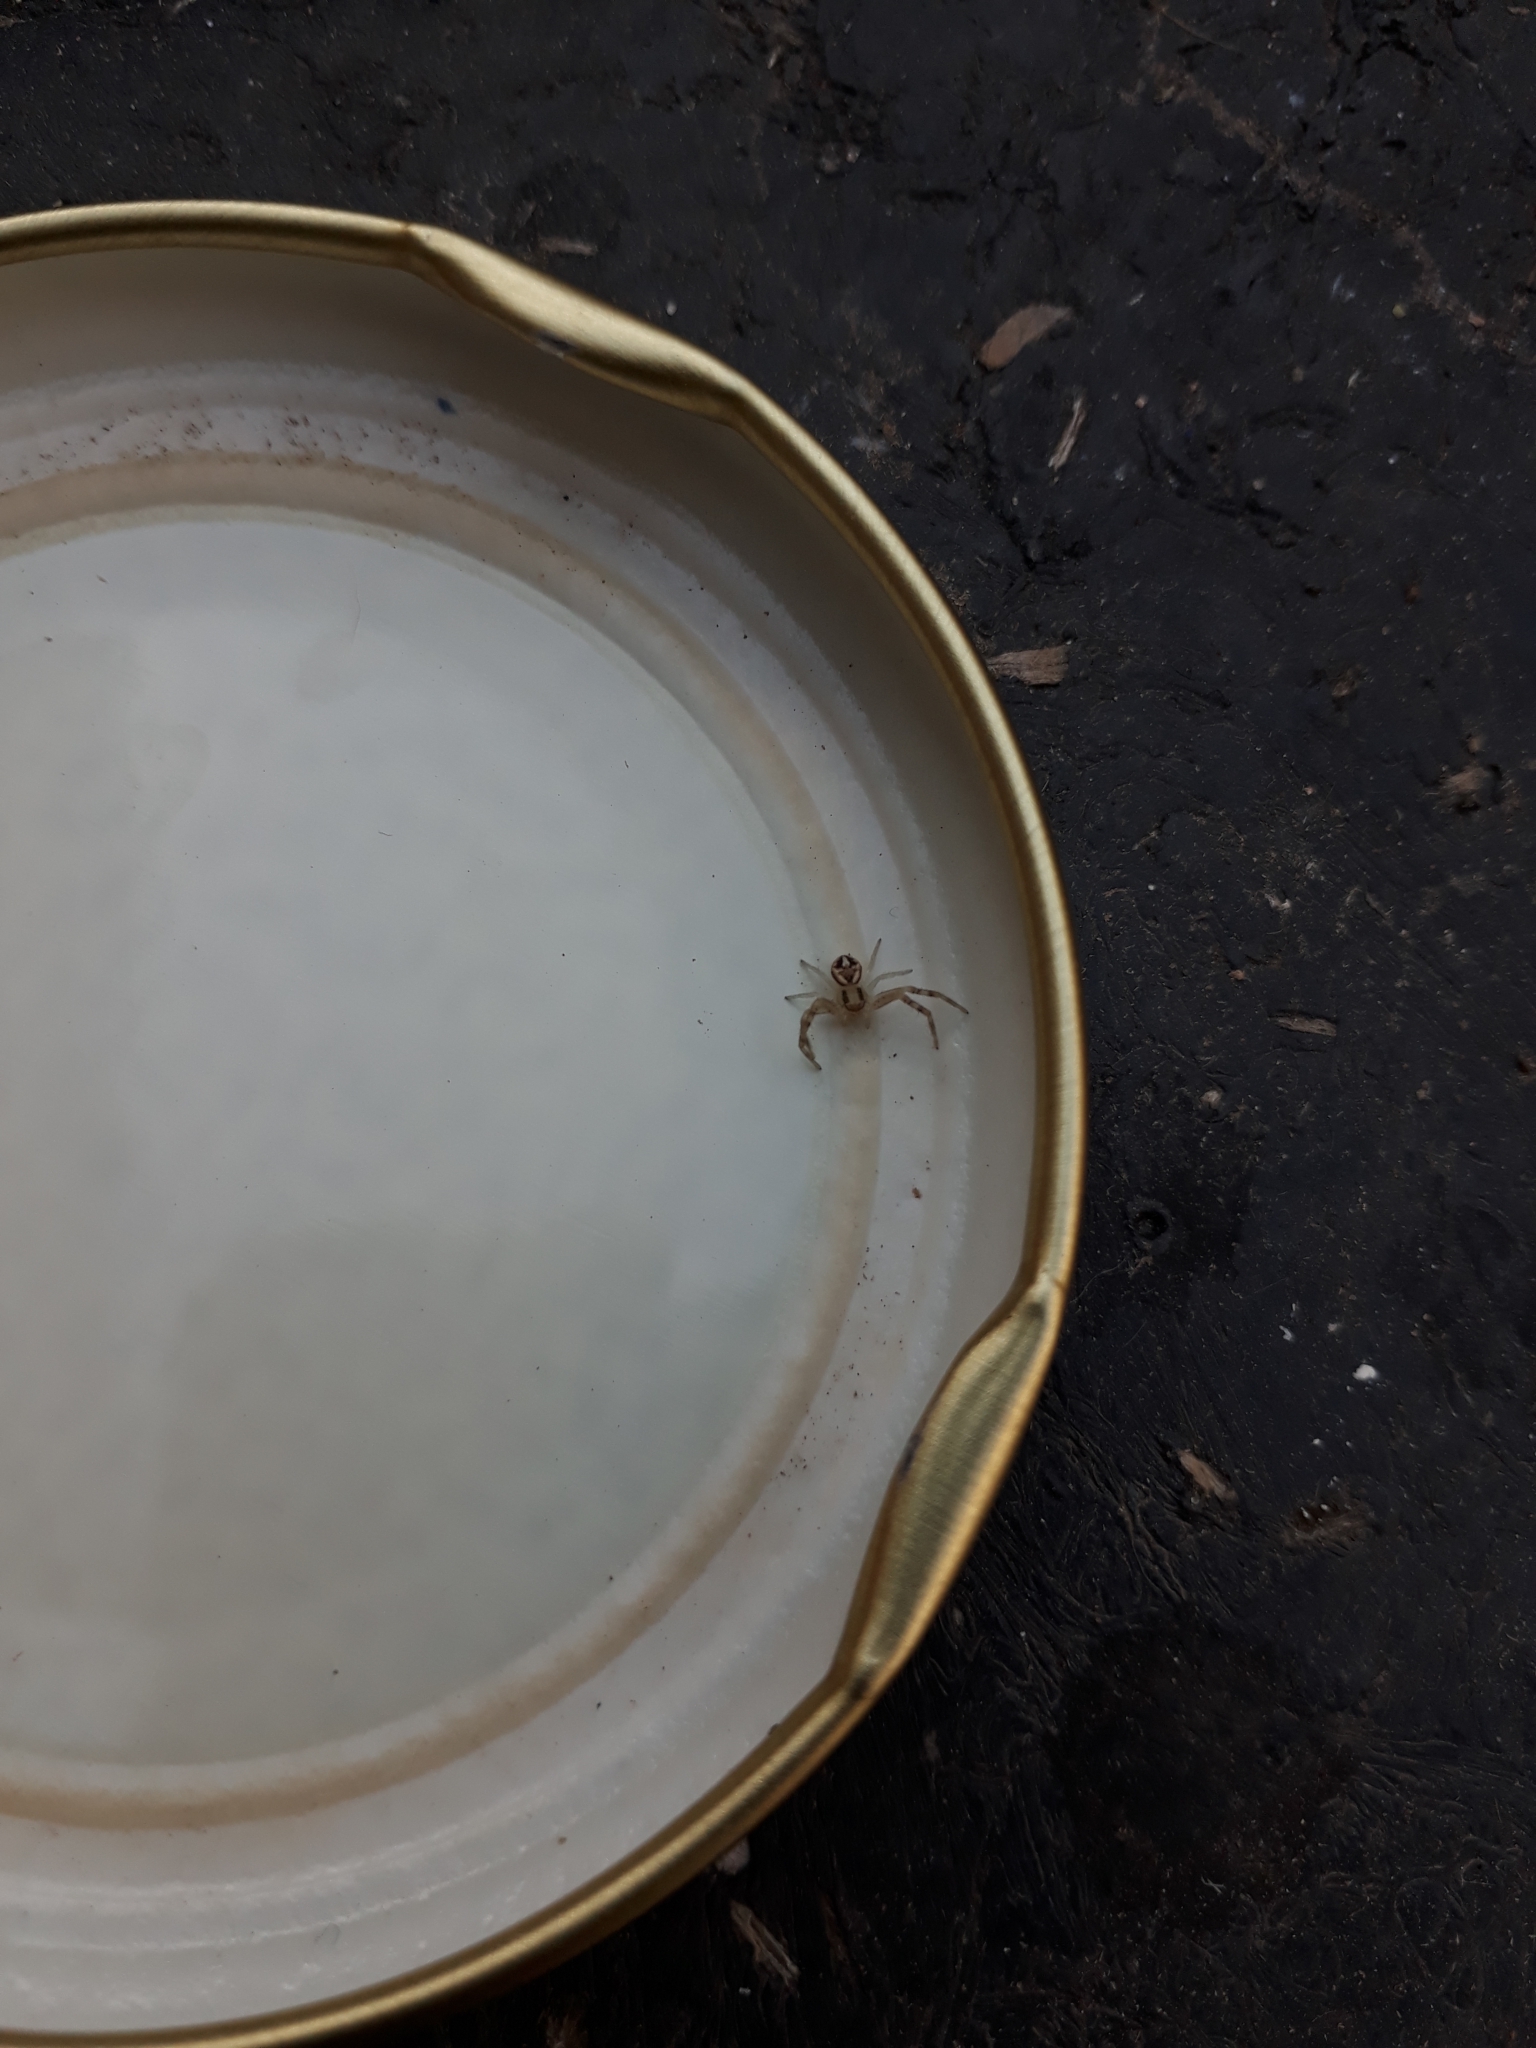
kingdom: Animalia
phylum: Arthropoda
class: Arachnida
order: Araneae
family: Thomisidae
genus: Misumenops
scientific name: Misumenops
